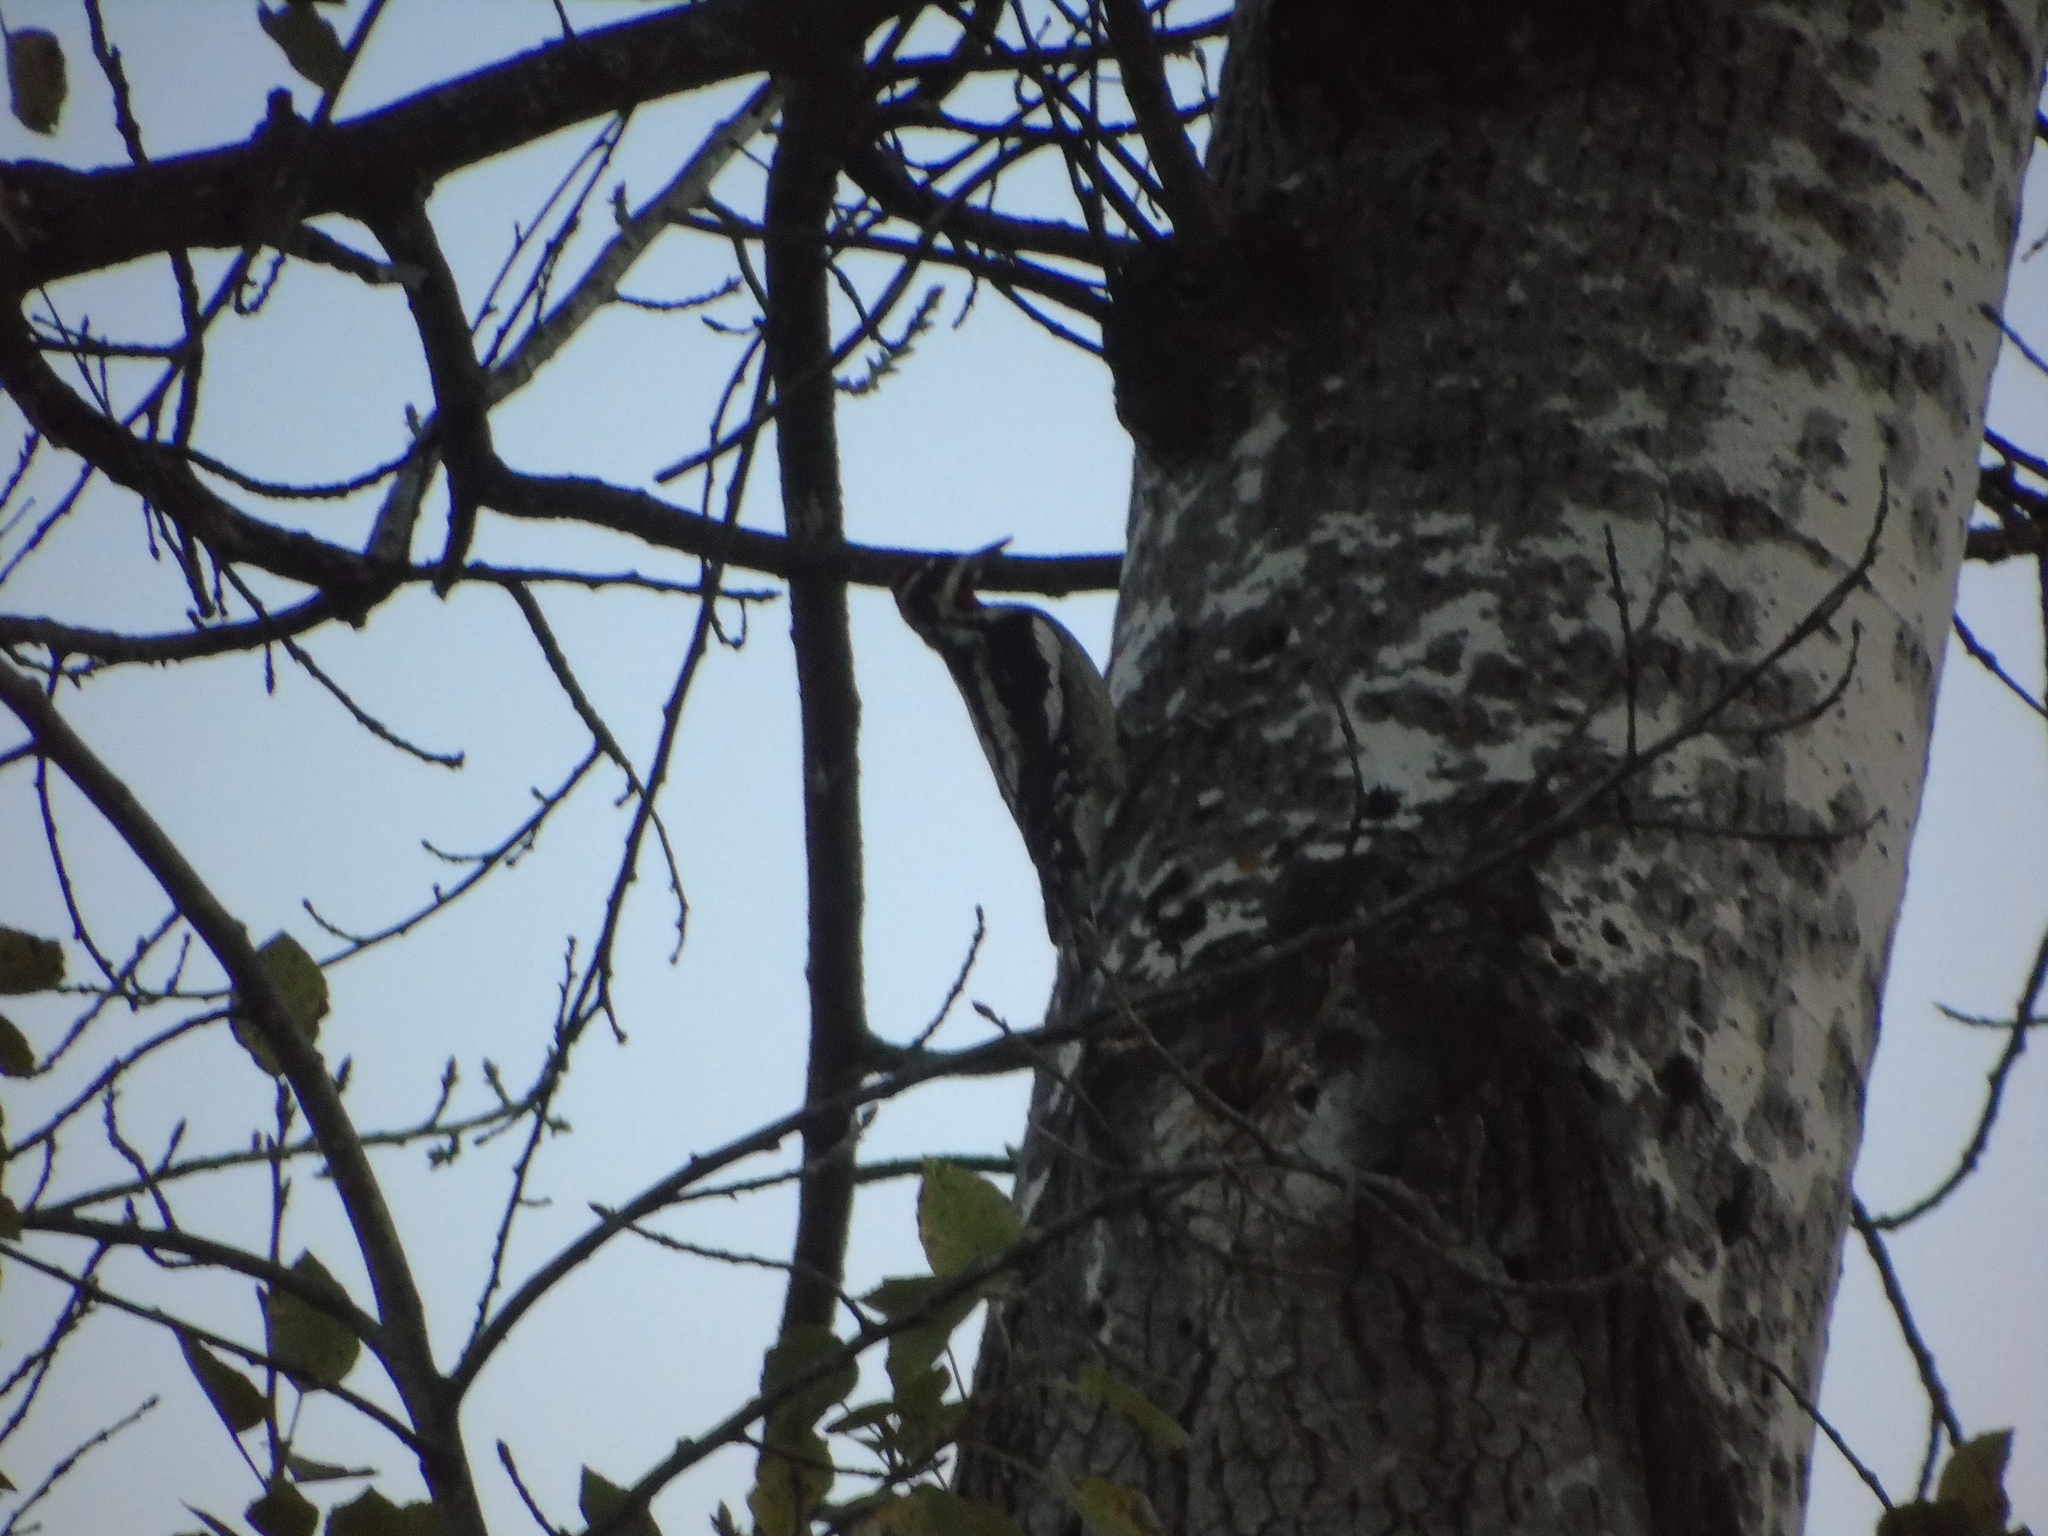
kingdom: Animalia
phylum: Chordata
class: Aves
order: Piciformes
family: Picidae
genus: Sphyrapicus
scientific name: Sphyrapicus nuchalis
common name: Red-naped sapsucker
